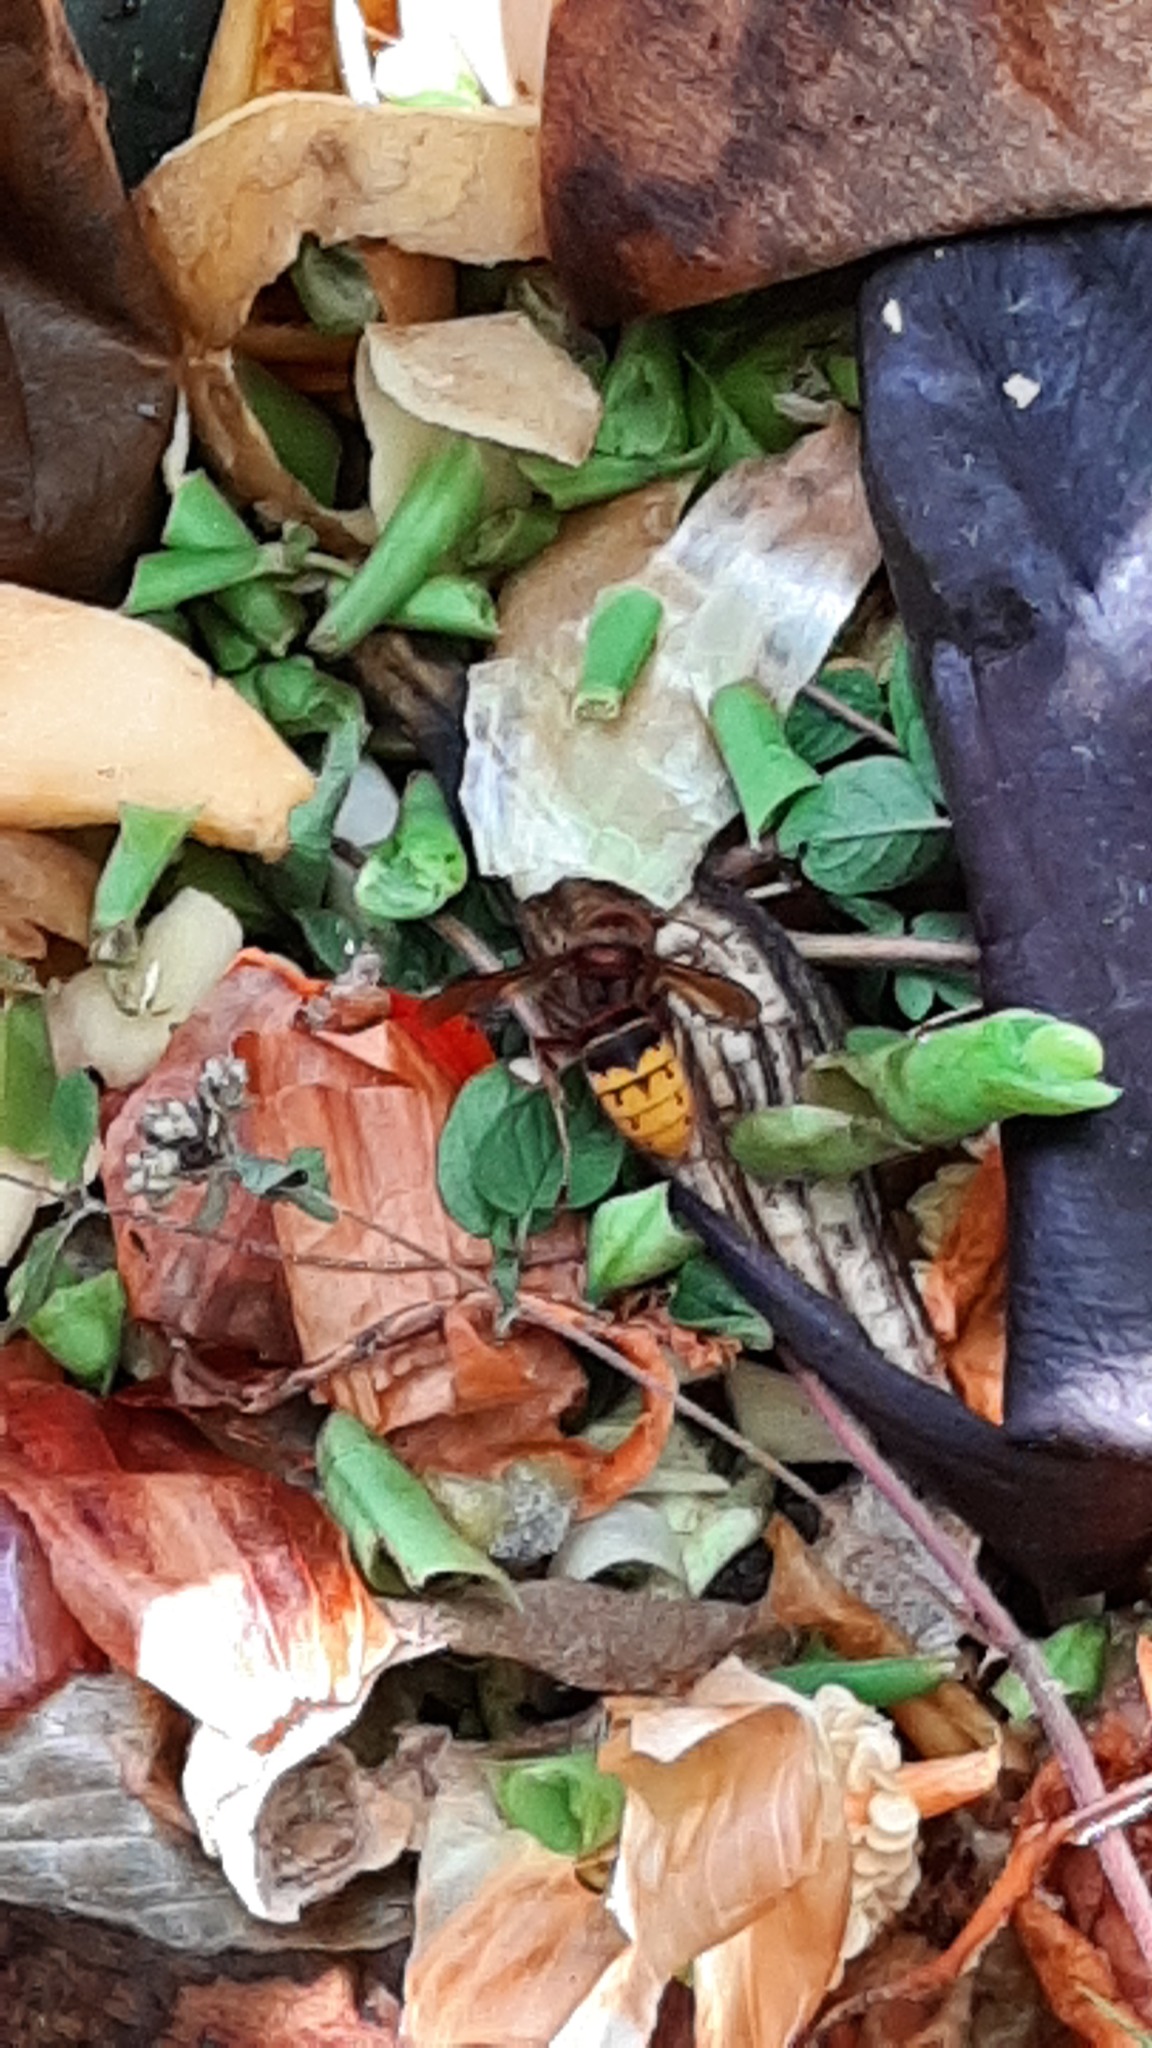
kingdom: Animalia
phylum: Arthropoda
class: Insecta
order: Hymenoptera
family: Vespidae
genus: Vespa
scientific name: Vespa crabro
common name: Hornet
